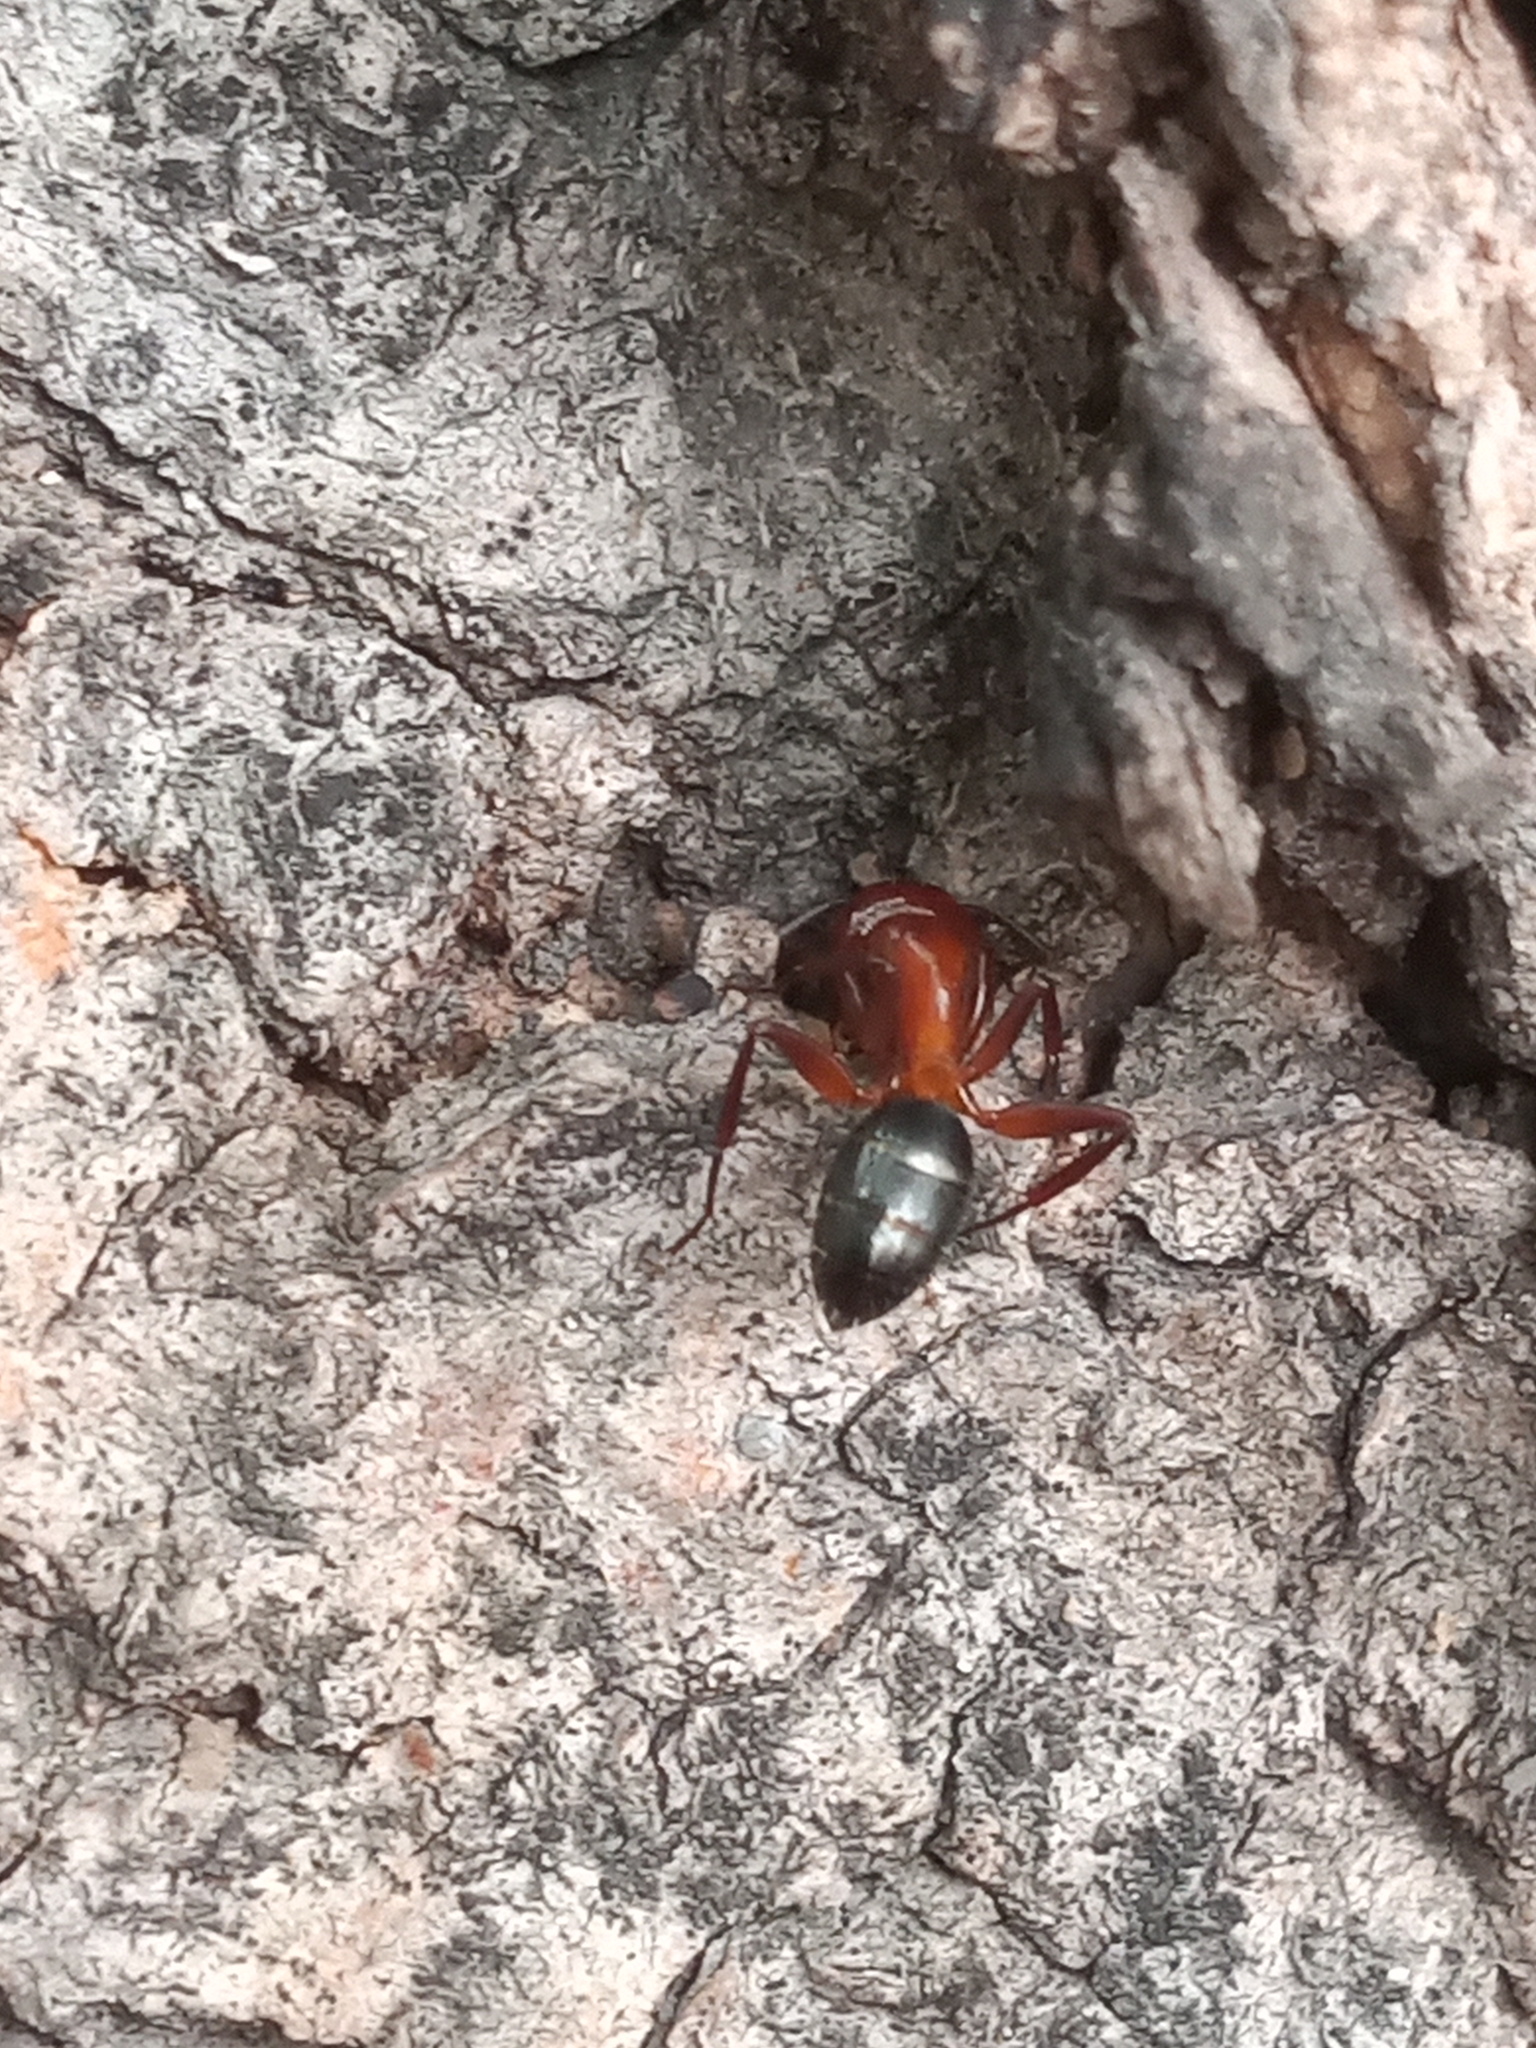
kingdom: Animalia
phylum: Arthropoda
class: Insecta
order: Hymenoptera
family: Formicidae
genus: Camponotus
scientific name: Camponotus decipiens
